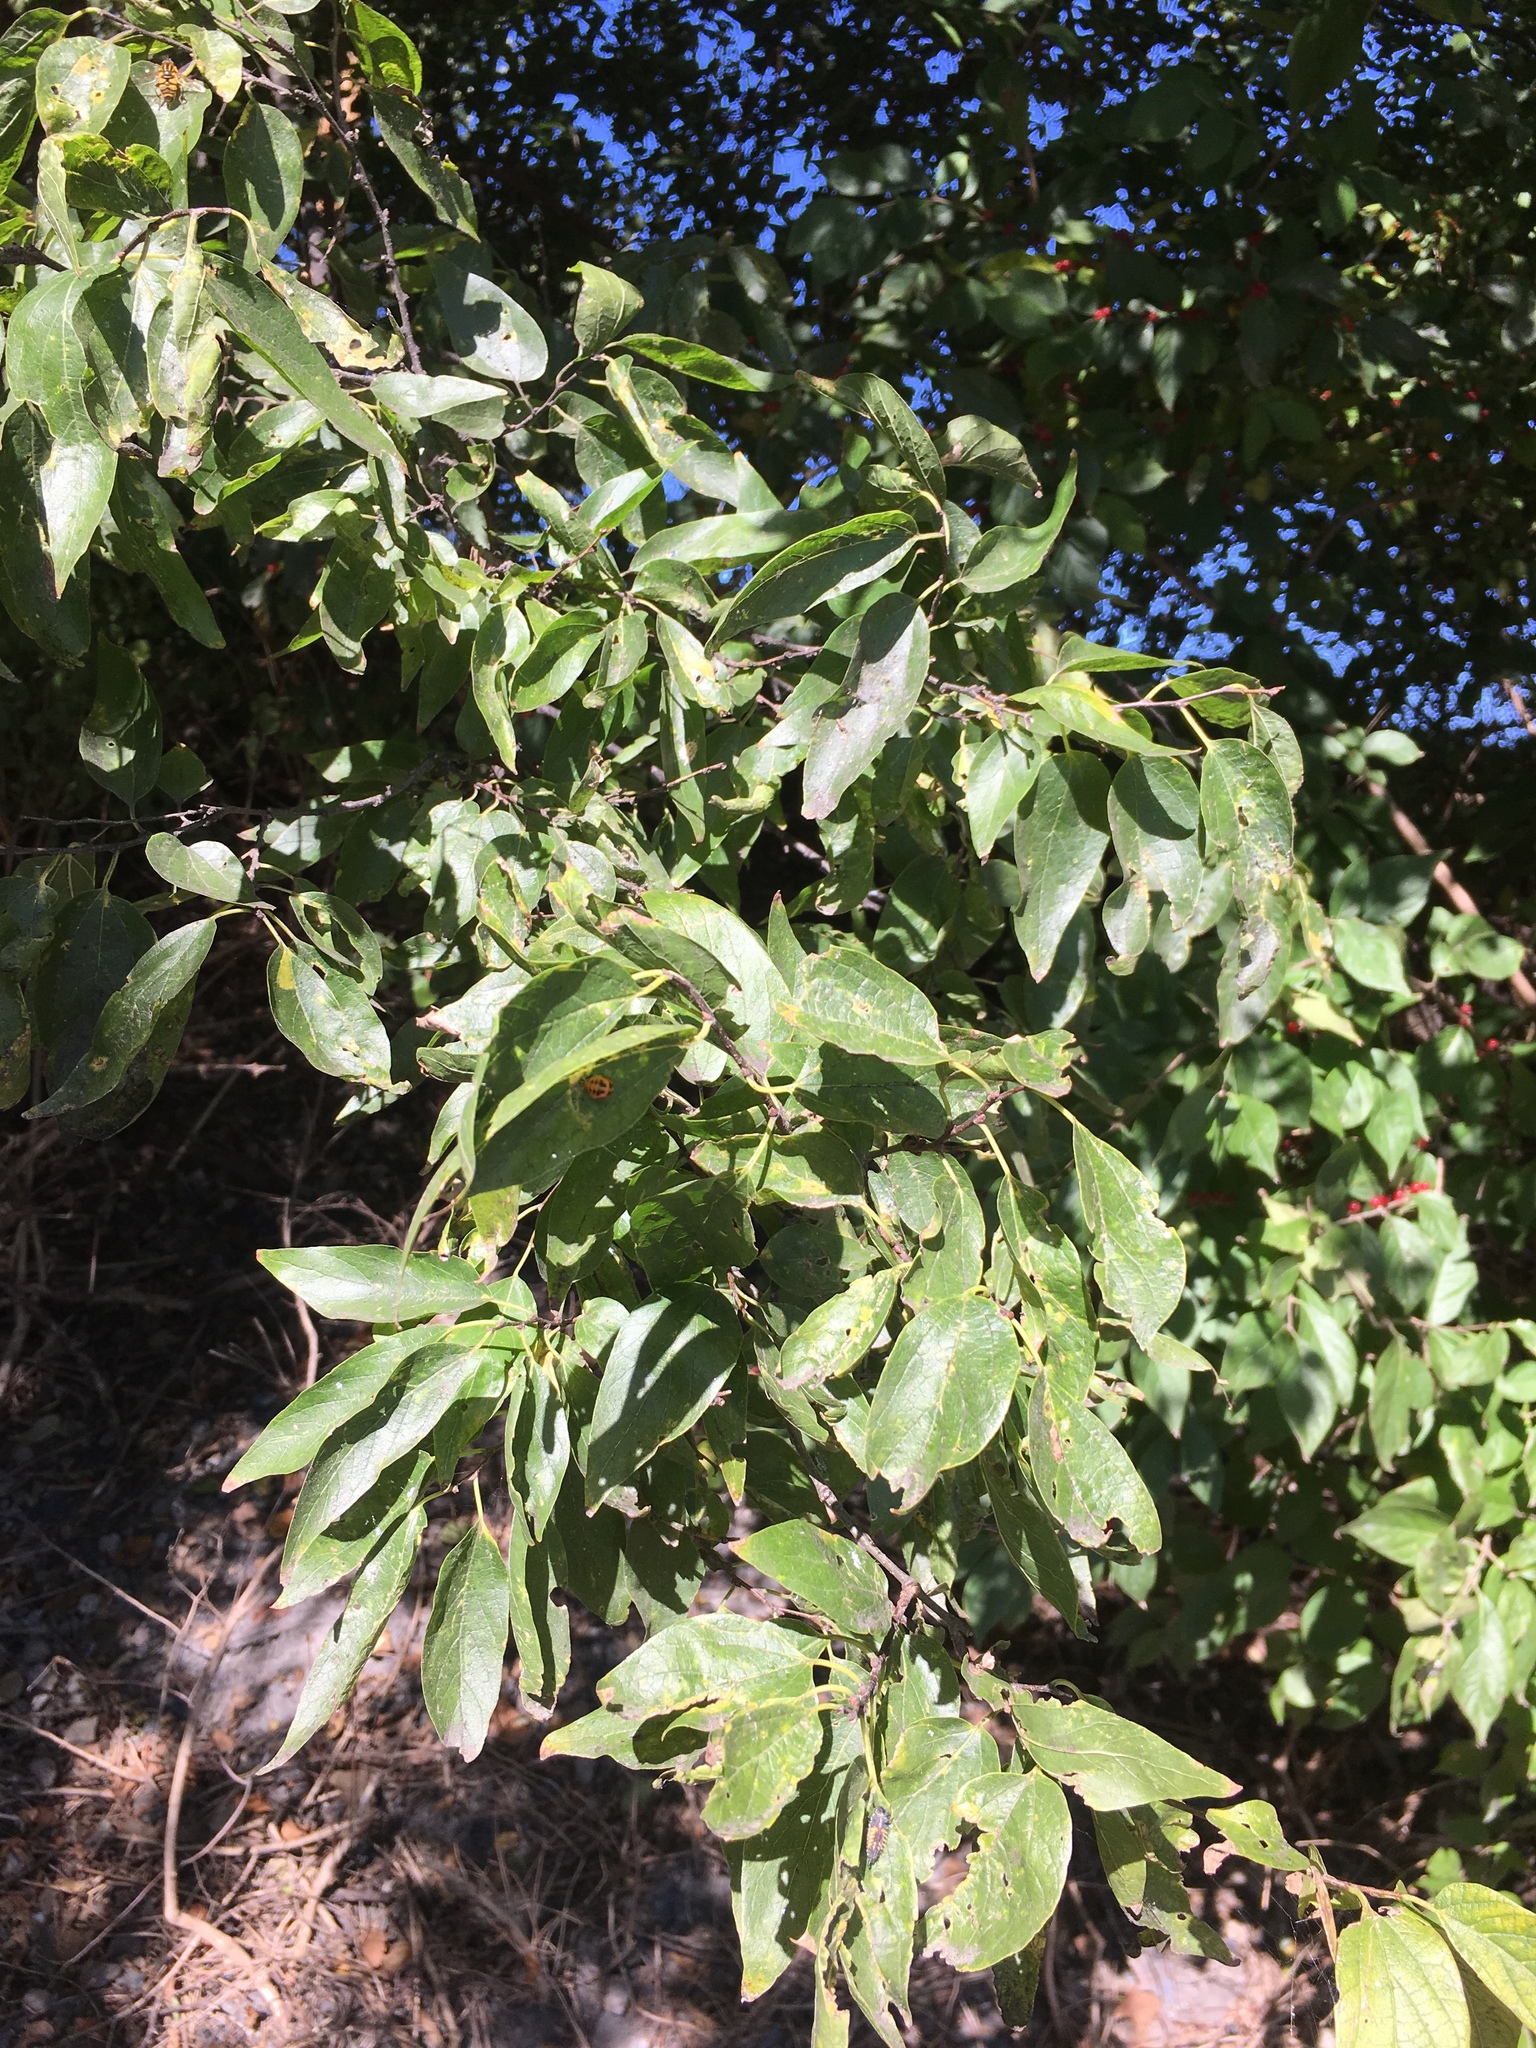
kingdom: Plantae
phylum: Tracheophyta
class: Magnoliopsida
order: Rosales
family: Cannabaceae
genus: Celtis
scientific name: Celtis laevigata
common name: Sugarberry
